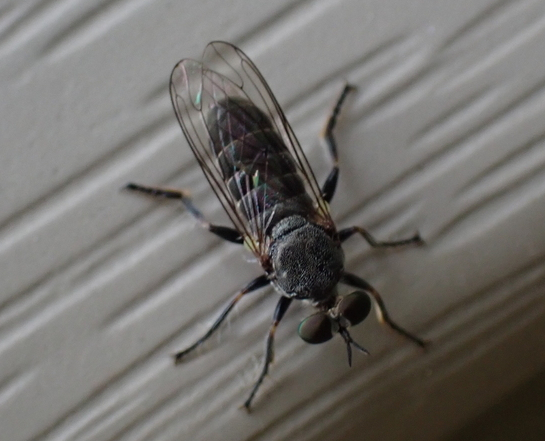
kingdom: Animalia
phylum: Arthropoda
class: Insecta
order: Diptera
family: Asilidae
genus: Atomosia
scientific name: Atomosia puella
